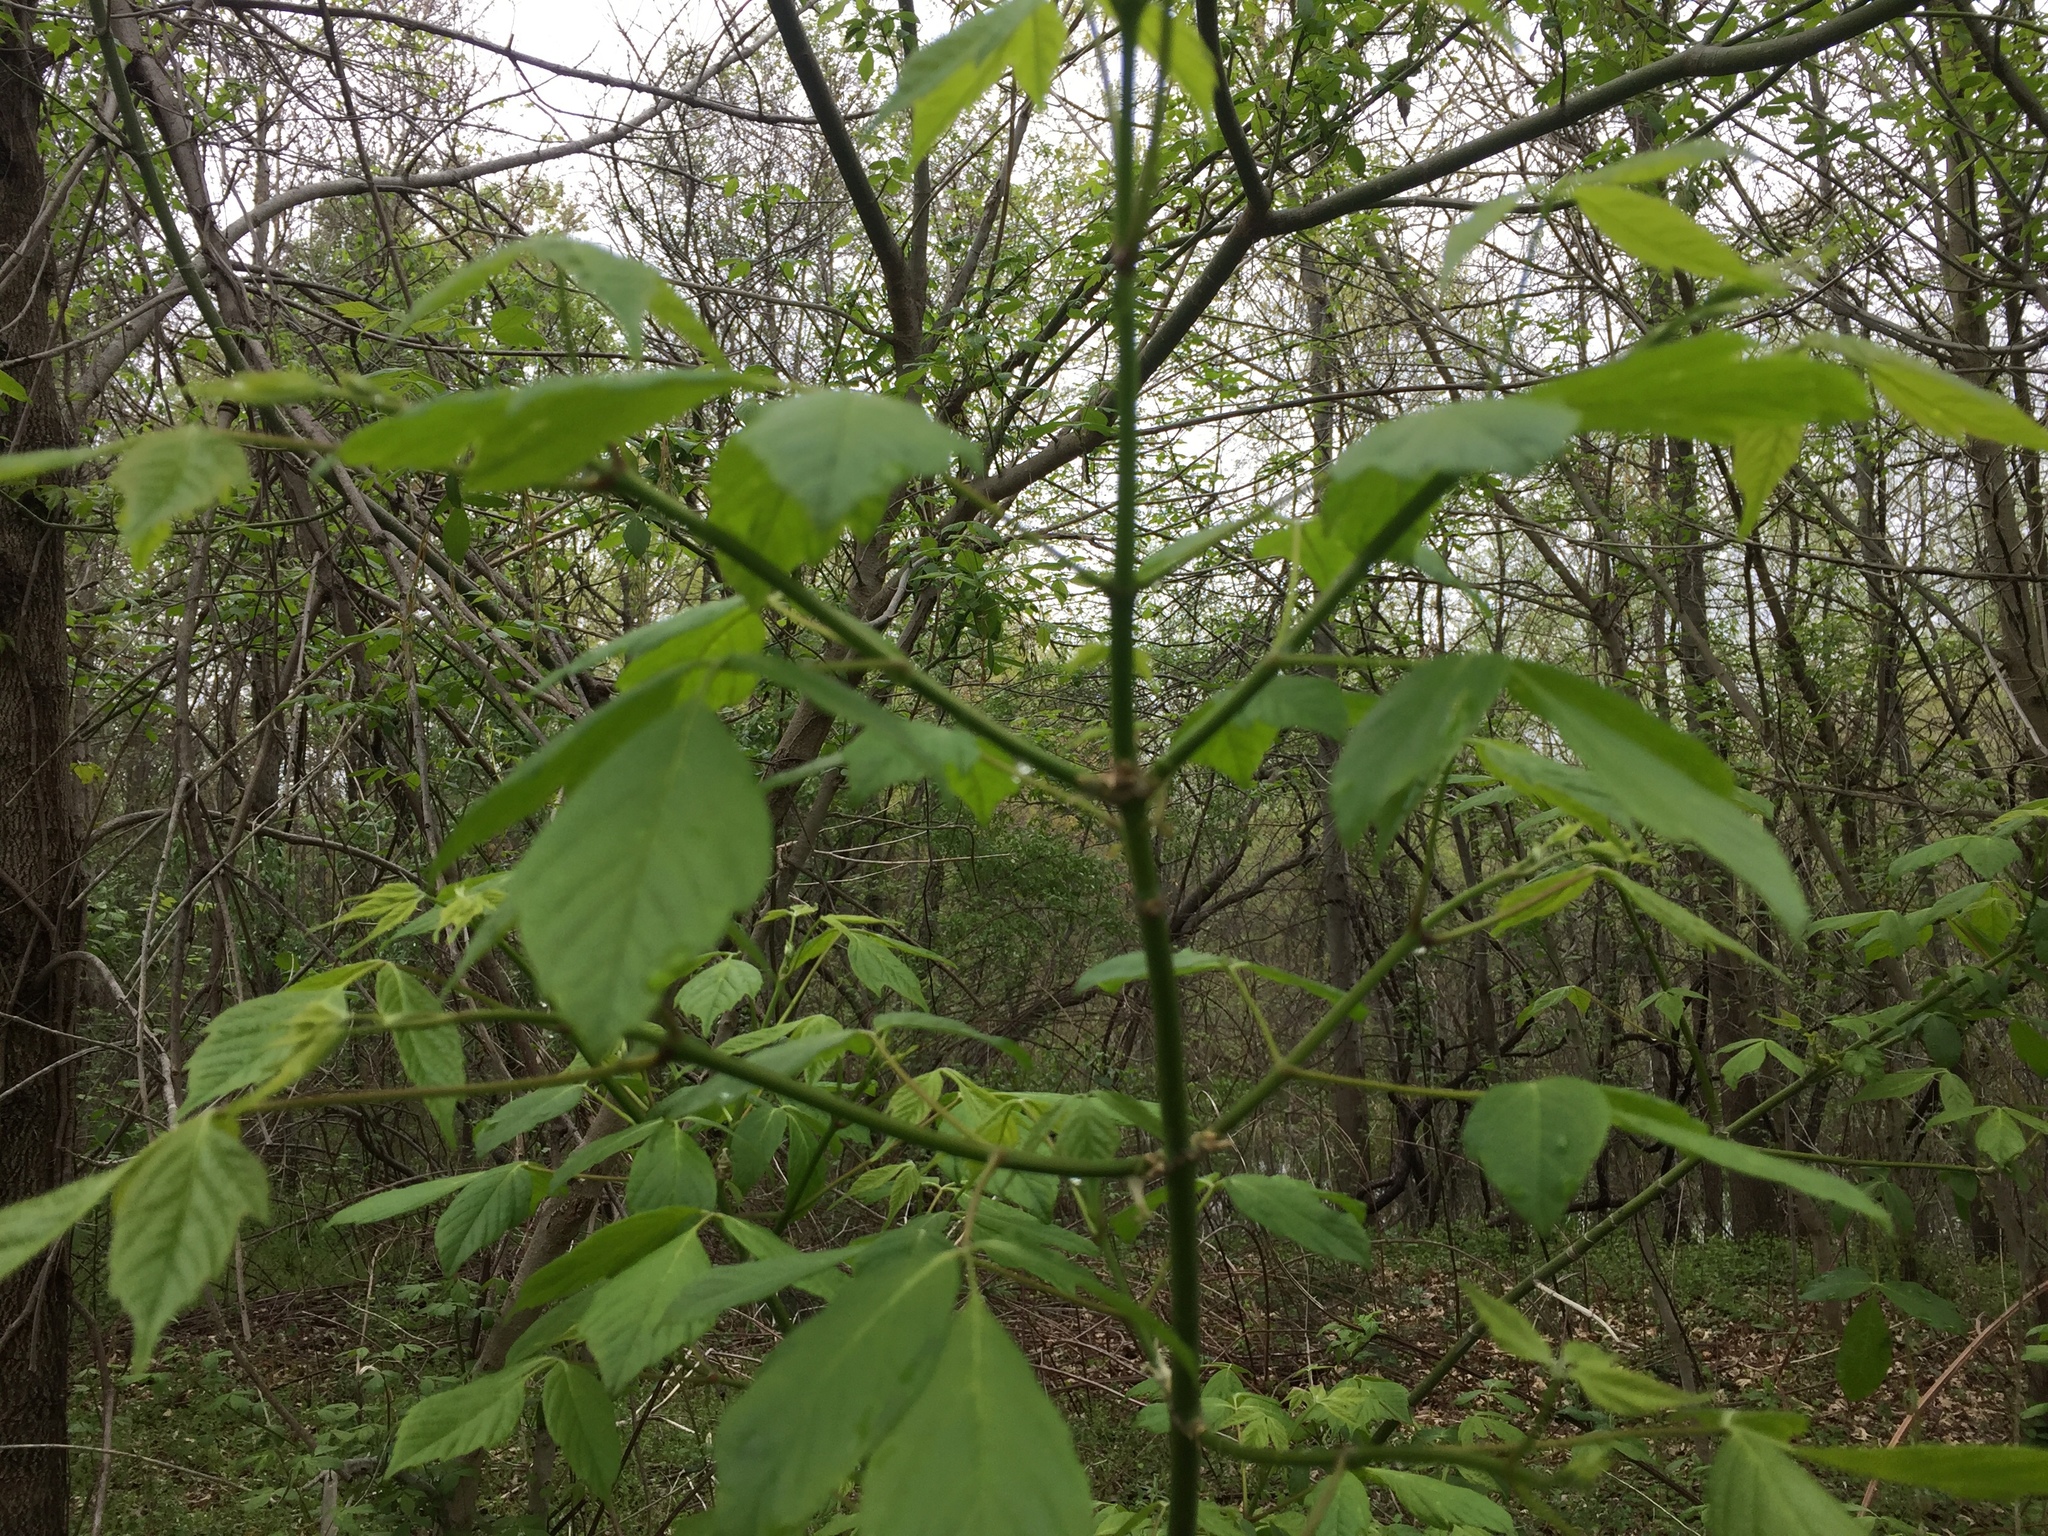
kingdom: Plantae
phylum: Tracheophyta
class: Magnoliopsida
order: Sapindales
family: Sapindaceae
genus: Acer
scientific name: Acer negundo
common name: Ashleaf maple
